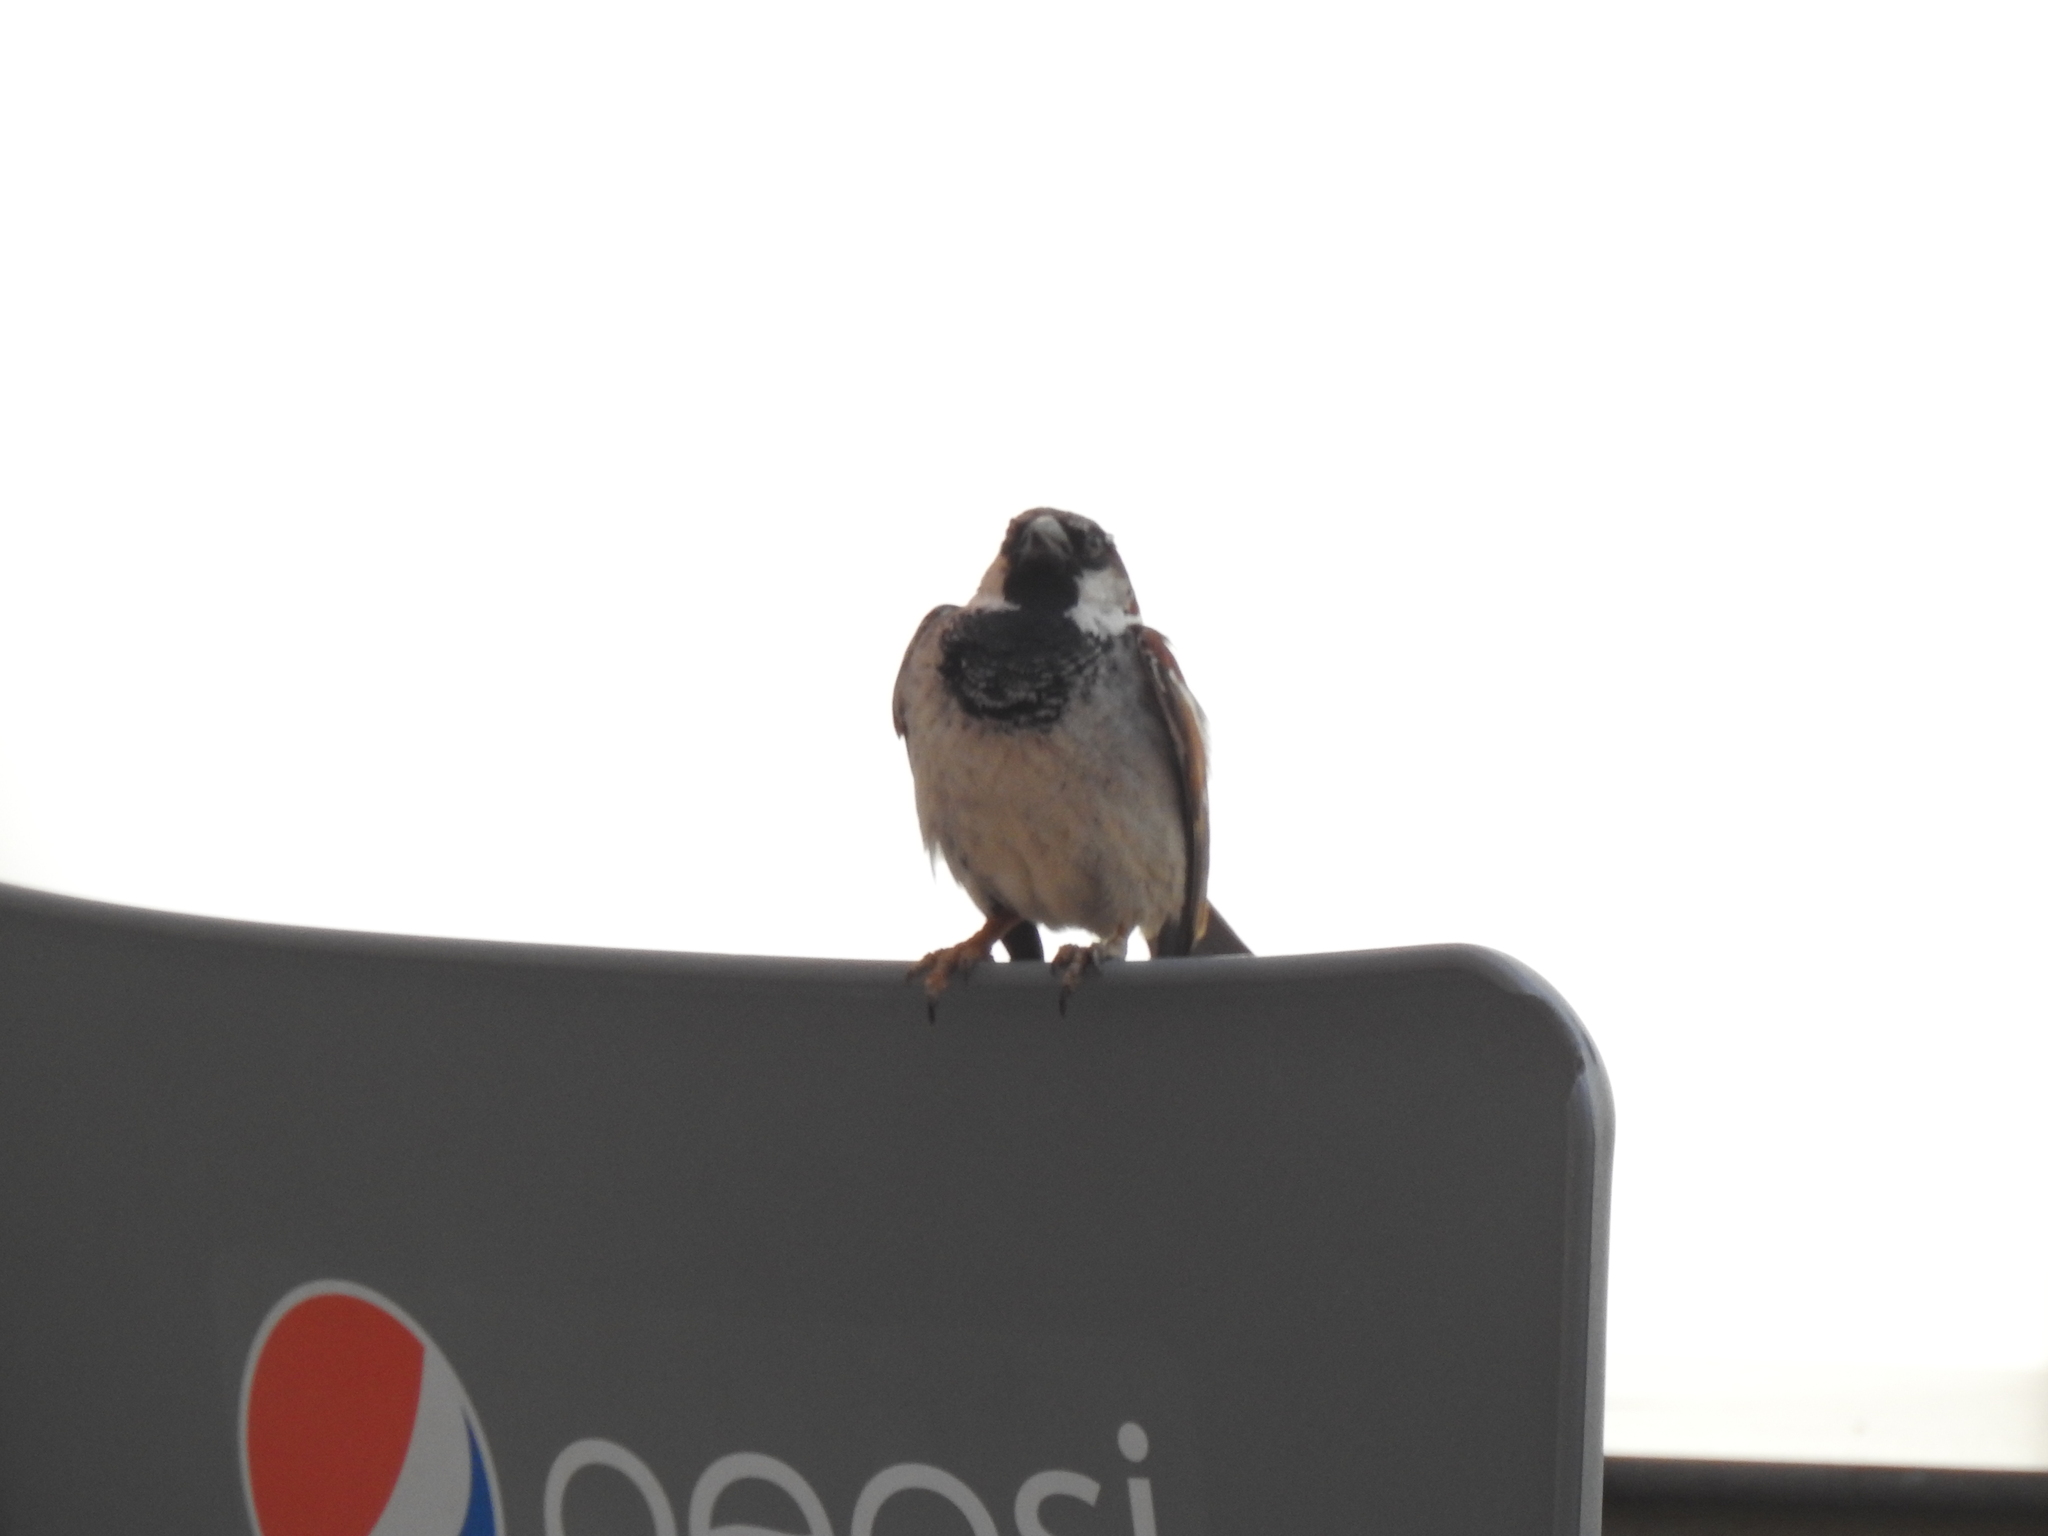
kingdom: Animalia
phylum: Chordata
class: Aves
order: Passeriformes
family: Passeridae
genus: Passer
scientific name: Passer domesticus
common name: House sparrow
